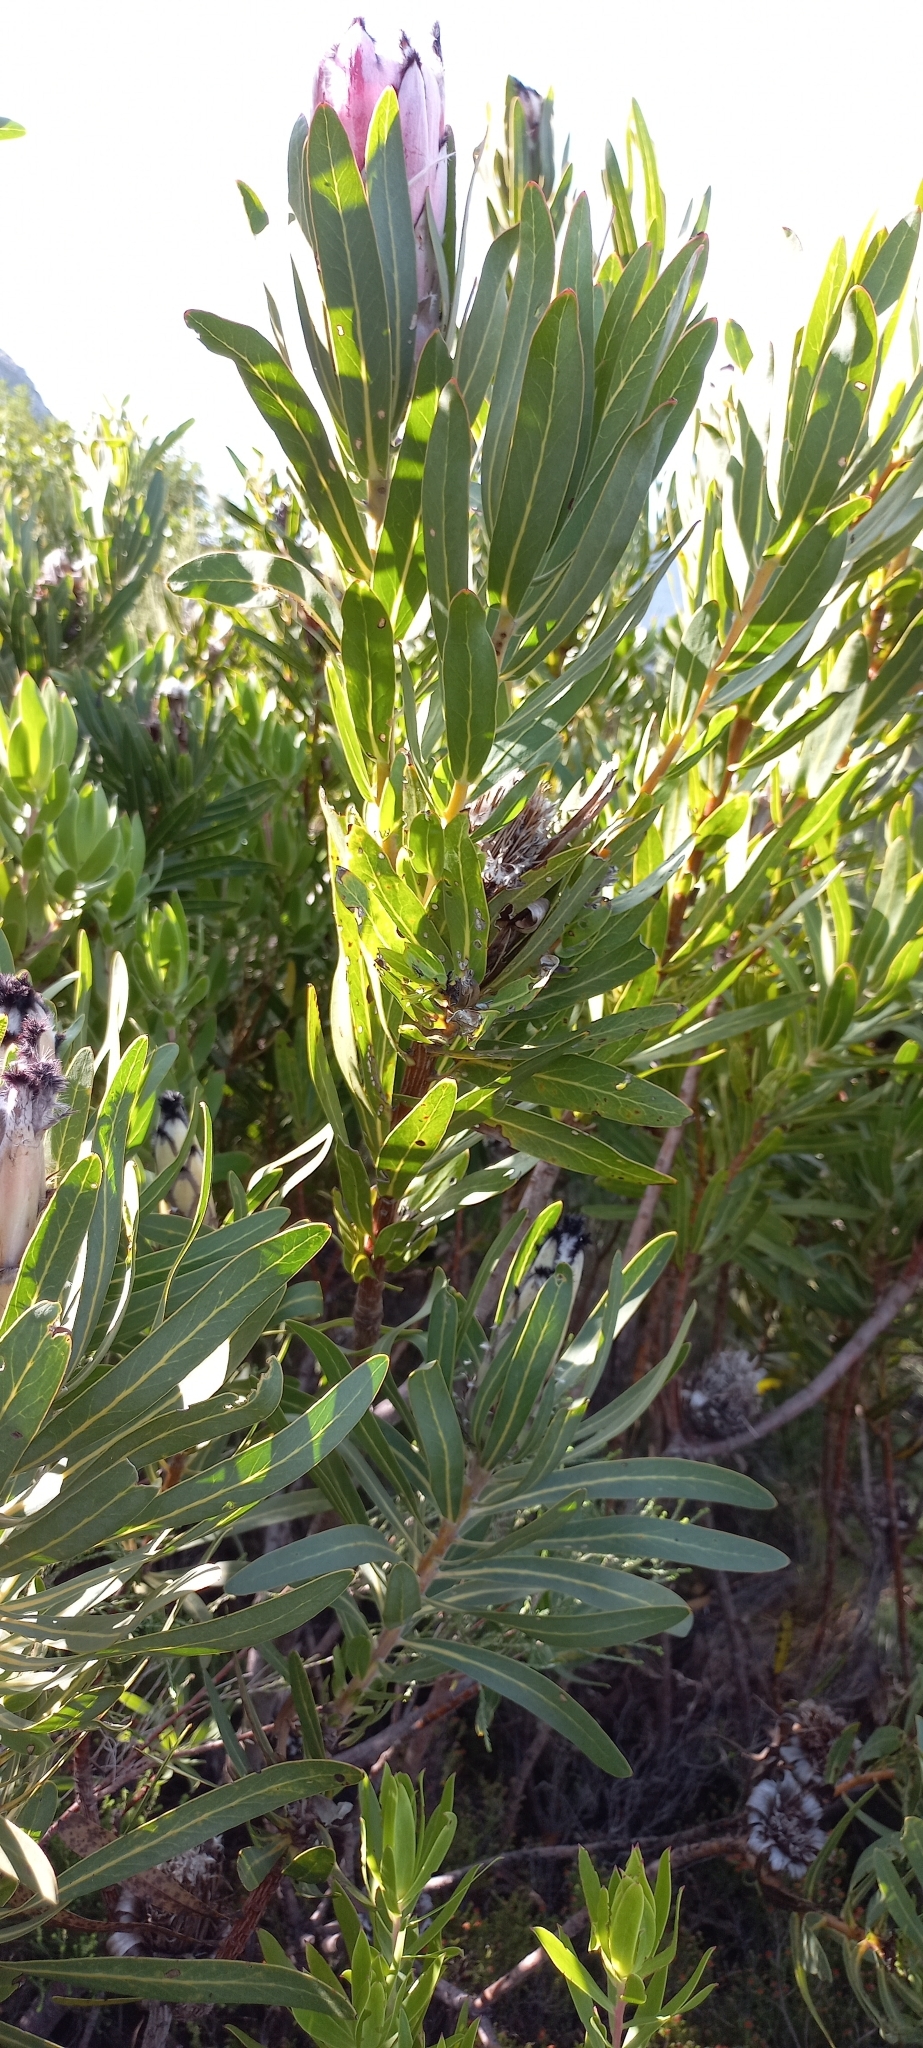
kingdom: Plantae
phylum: Tracheophyta
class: Magnoliopsida
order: Proteales
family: Proteaceae
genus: Protea
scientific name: Protea
